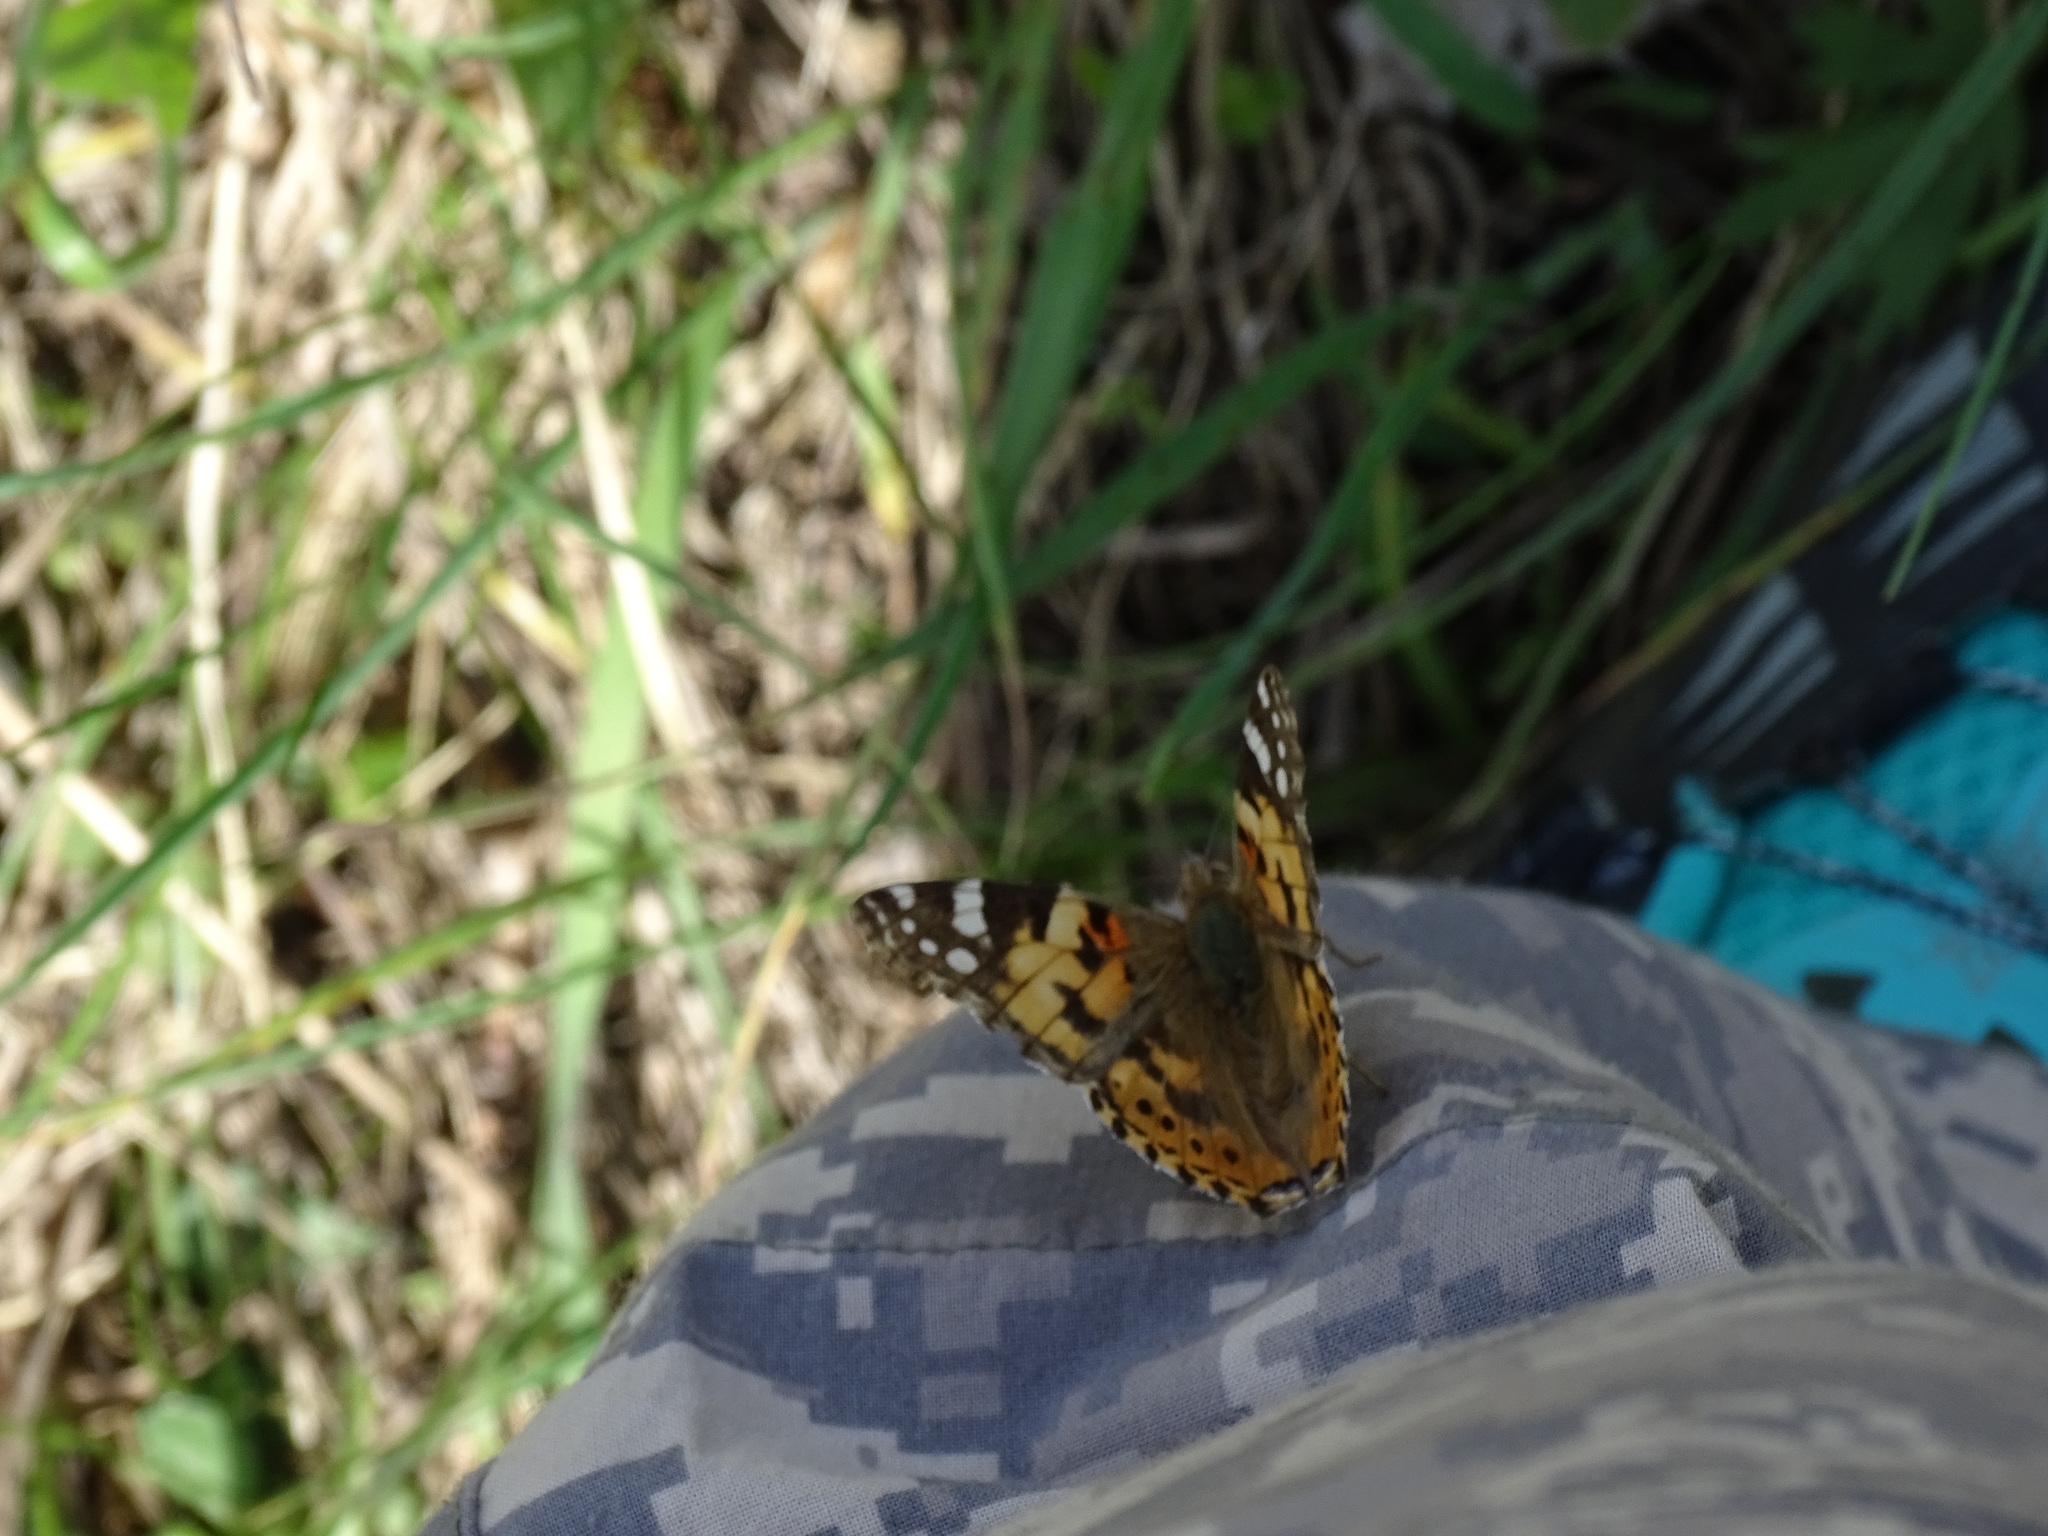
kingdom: Animalia
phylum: Arthropoda
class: Insecta
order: Lepidoptera
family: Nymphalidae
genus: Vanessa
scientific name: Vanessa cardui
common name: Painted lady
